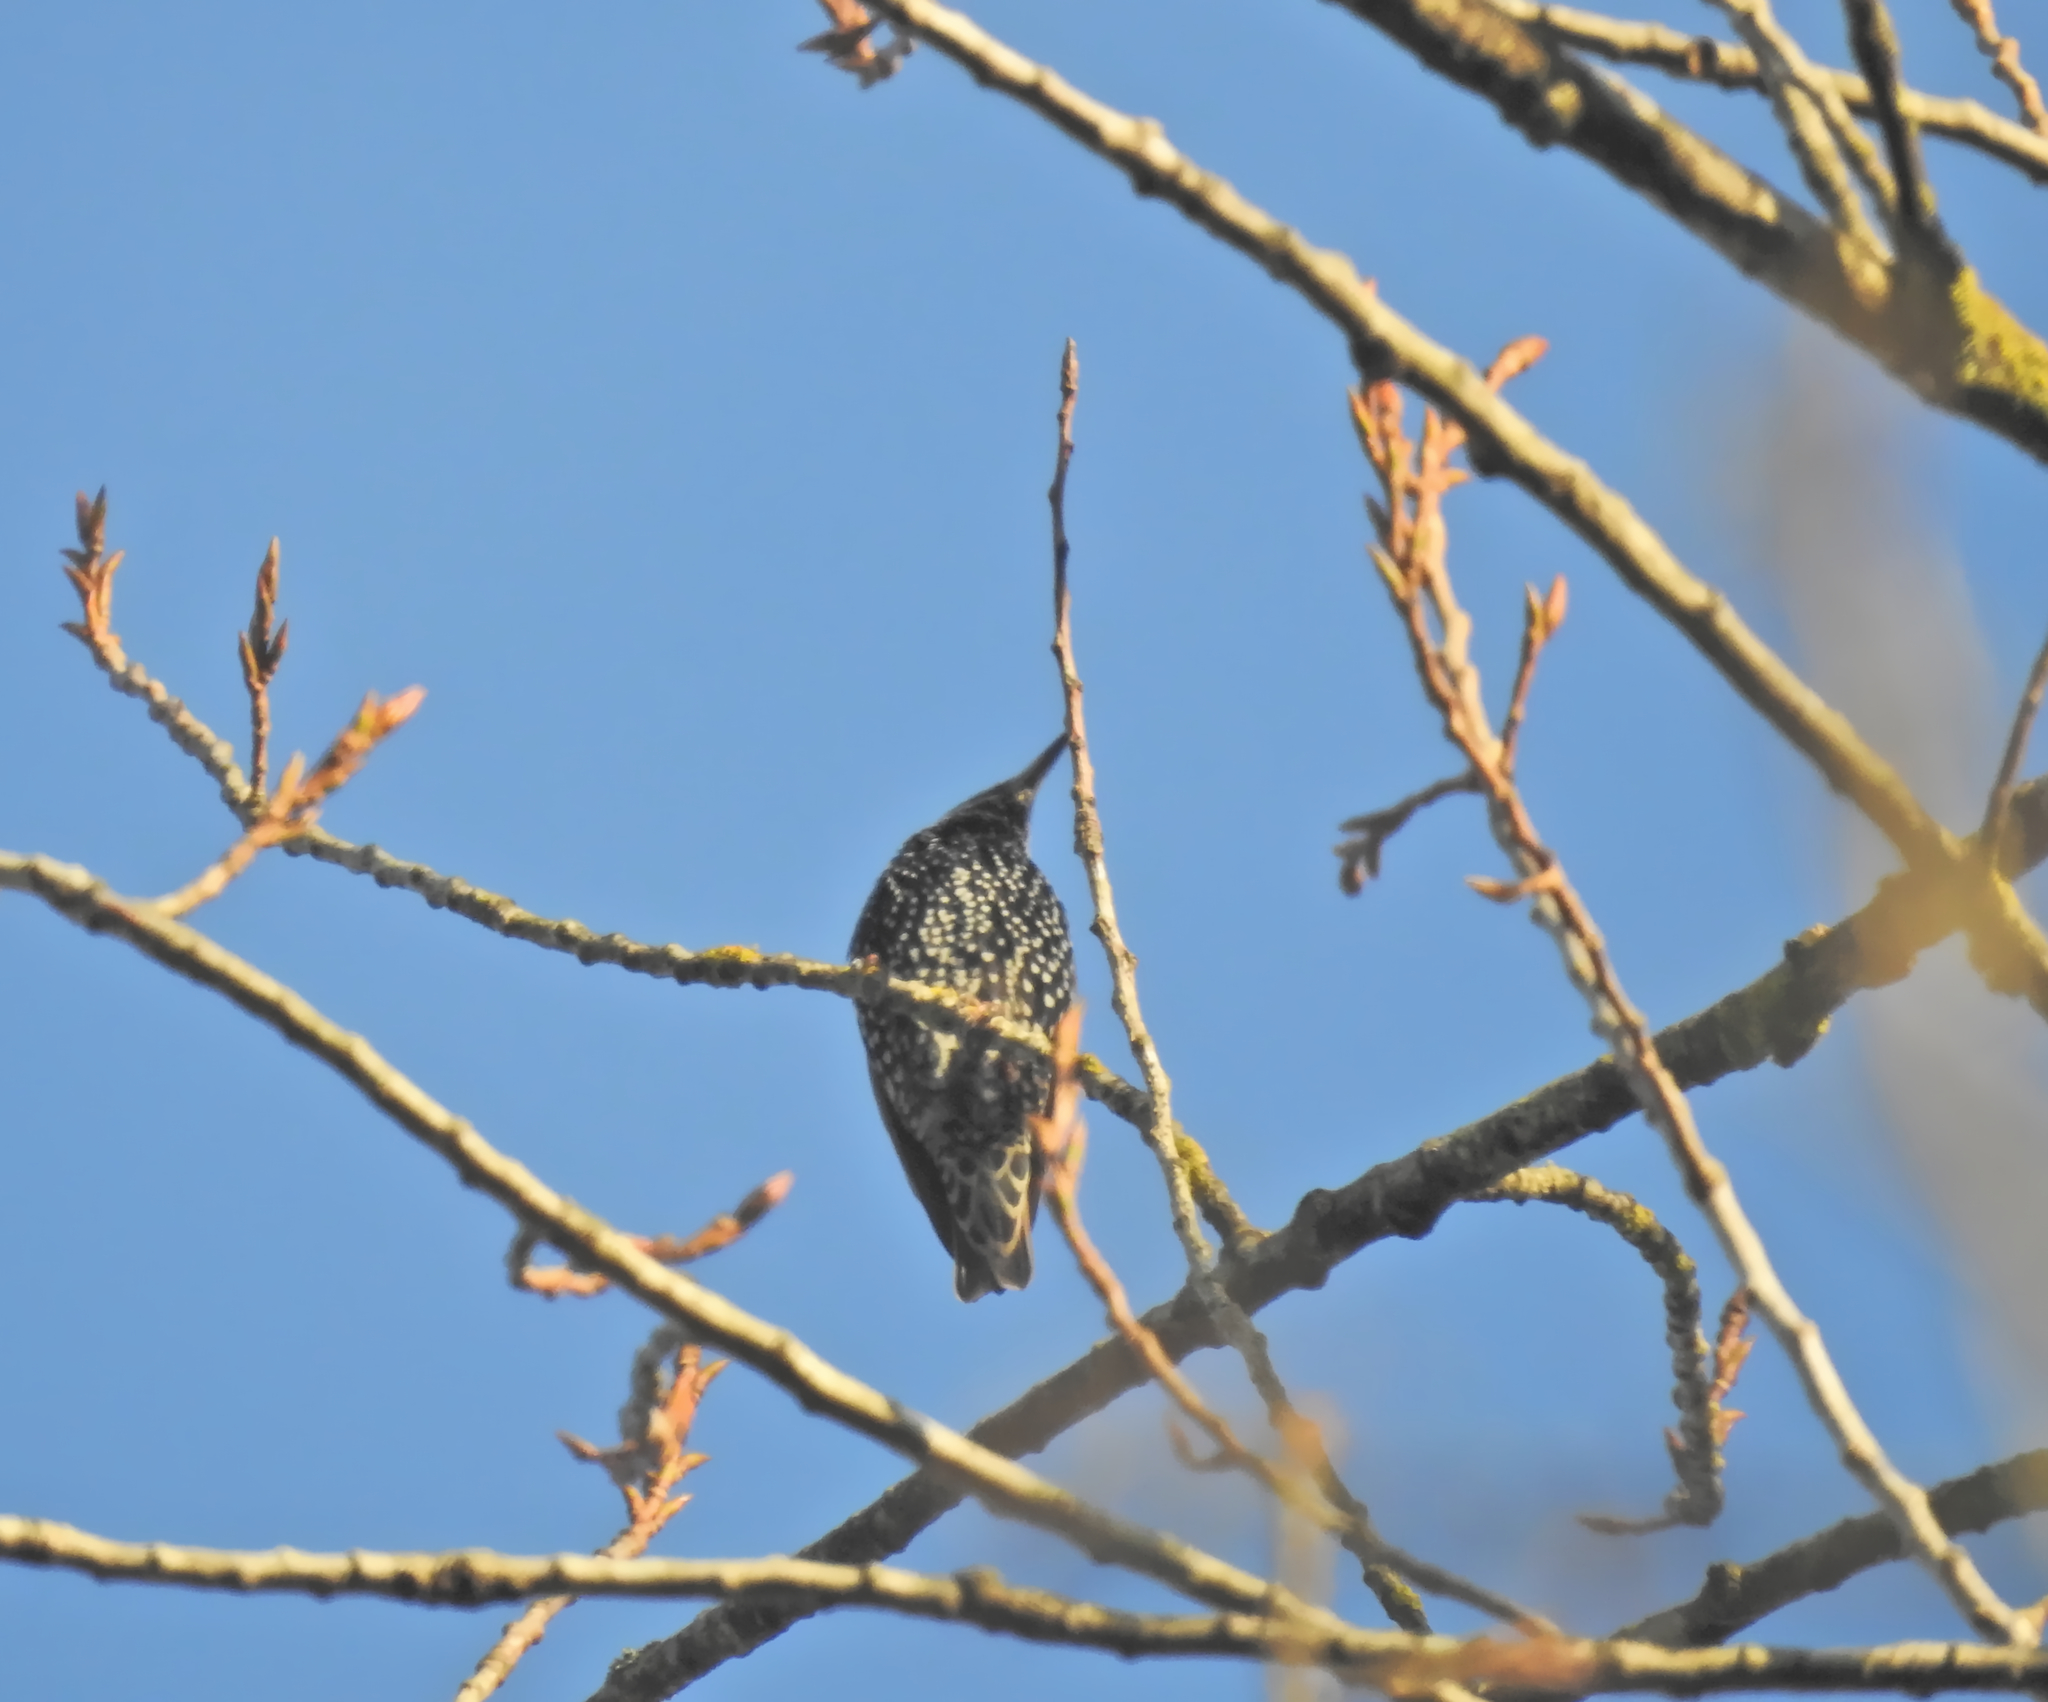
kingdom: Animalia
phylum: Chordata
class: Aves
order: Passeriformes
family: Sturnidae
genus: Sturnus
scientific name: Sturnus vulgaris
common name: Common starling
